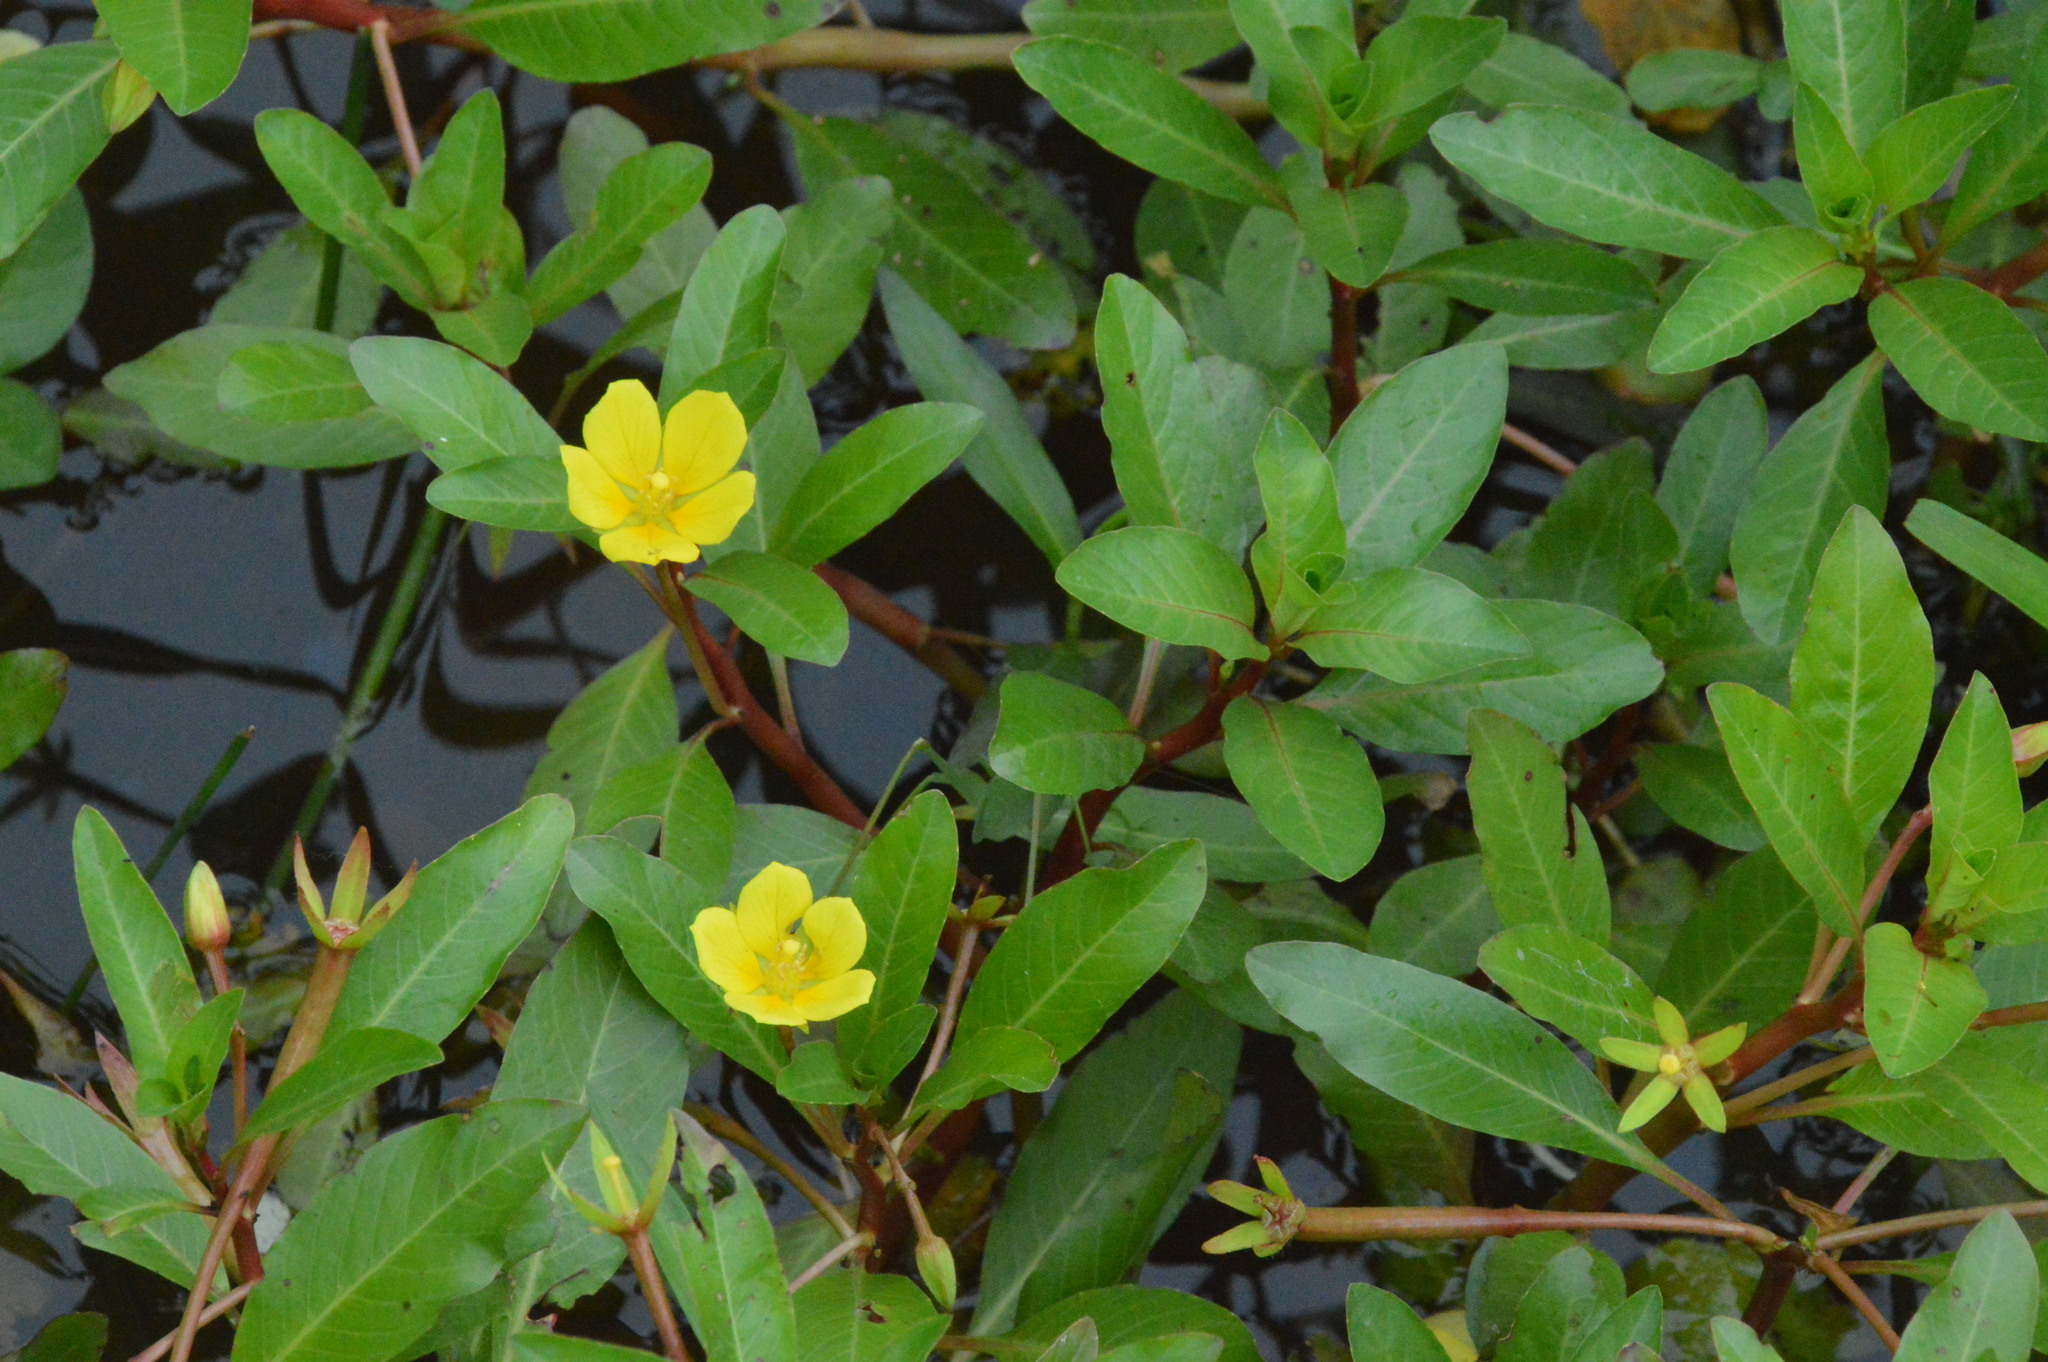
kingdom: Plantae
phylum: Tracheophyta
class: Magnoliopsida
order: Myrtales
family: Onagraceae
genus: Ludwigia
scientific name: Ludwigia peploides
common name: Floating primrose-willow
